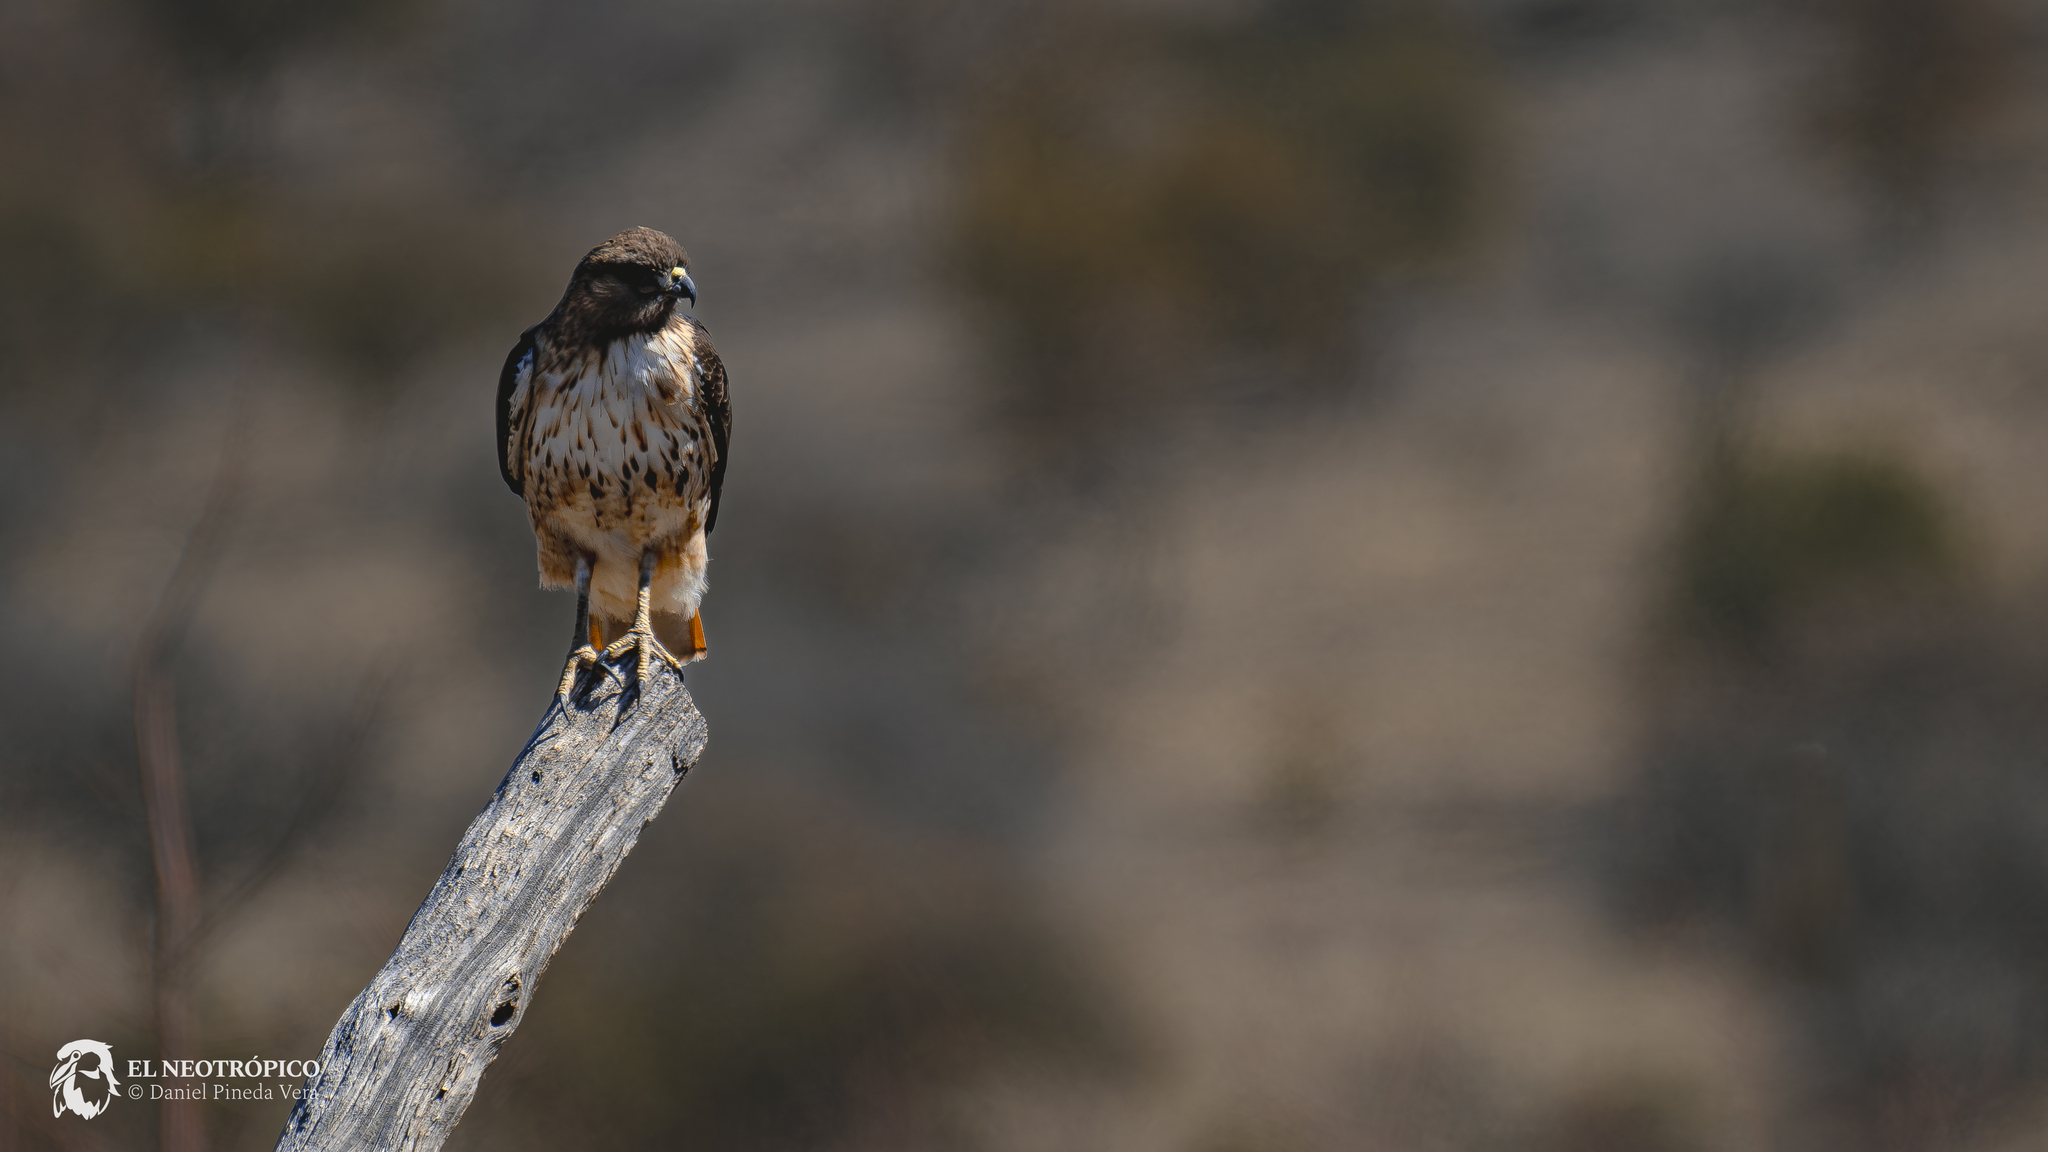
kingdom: Animalia
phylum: Chordata
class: Aves
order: Accipitriformes
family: Accipitridae
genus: Buteo
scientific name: Buteo jamaicensis
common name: Red-tailed hawk
